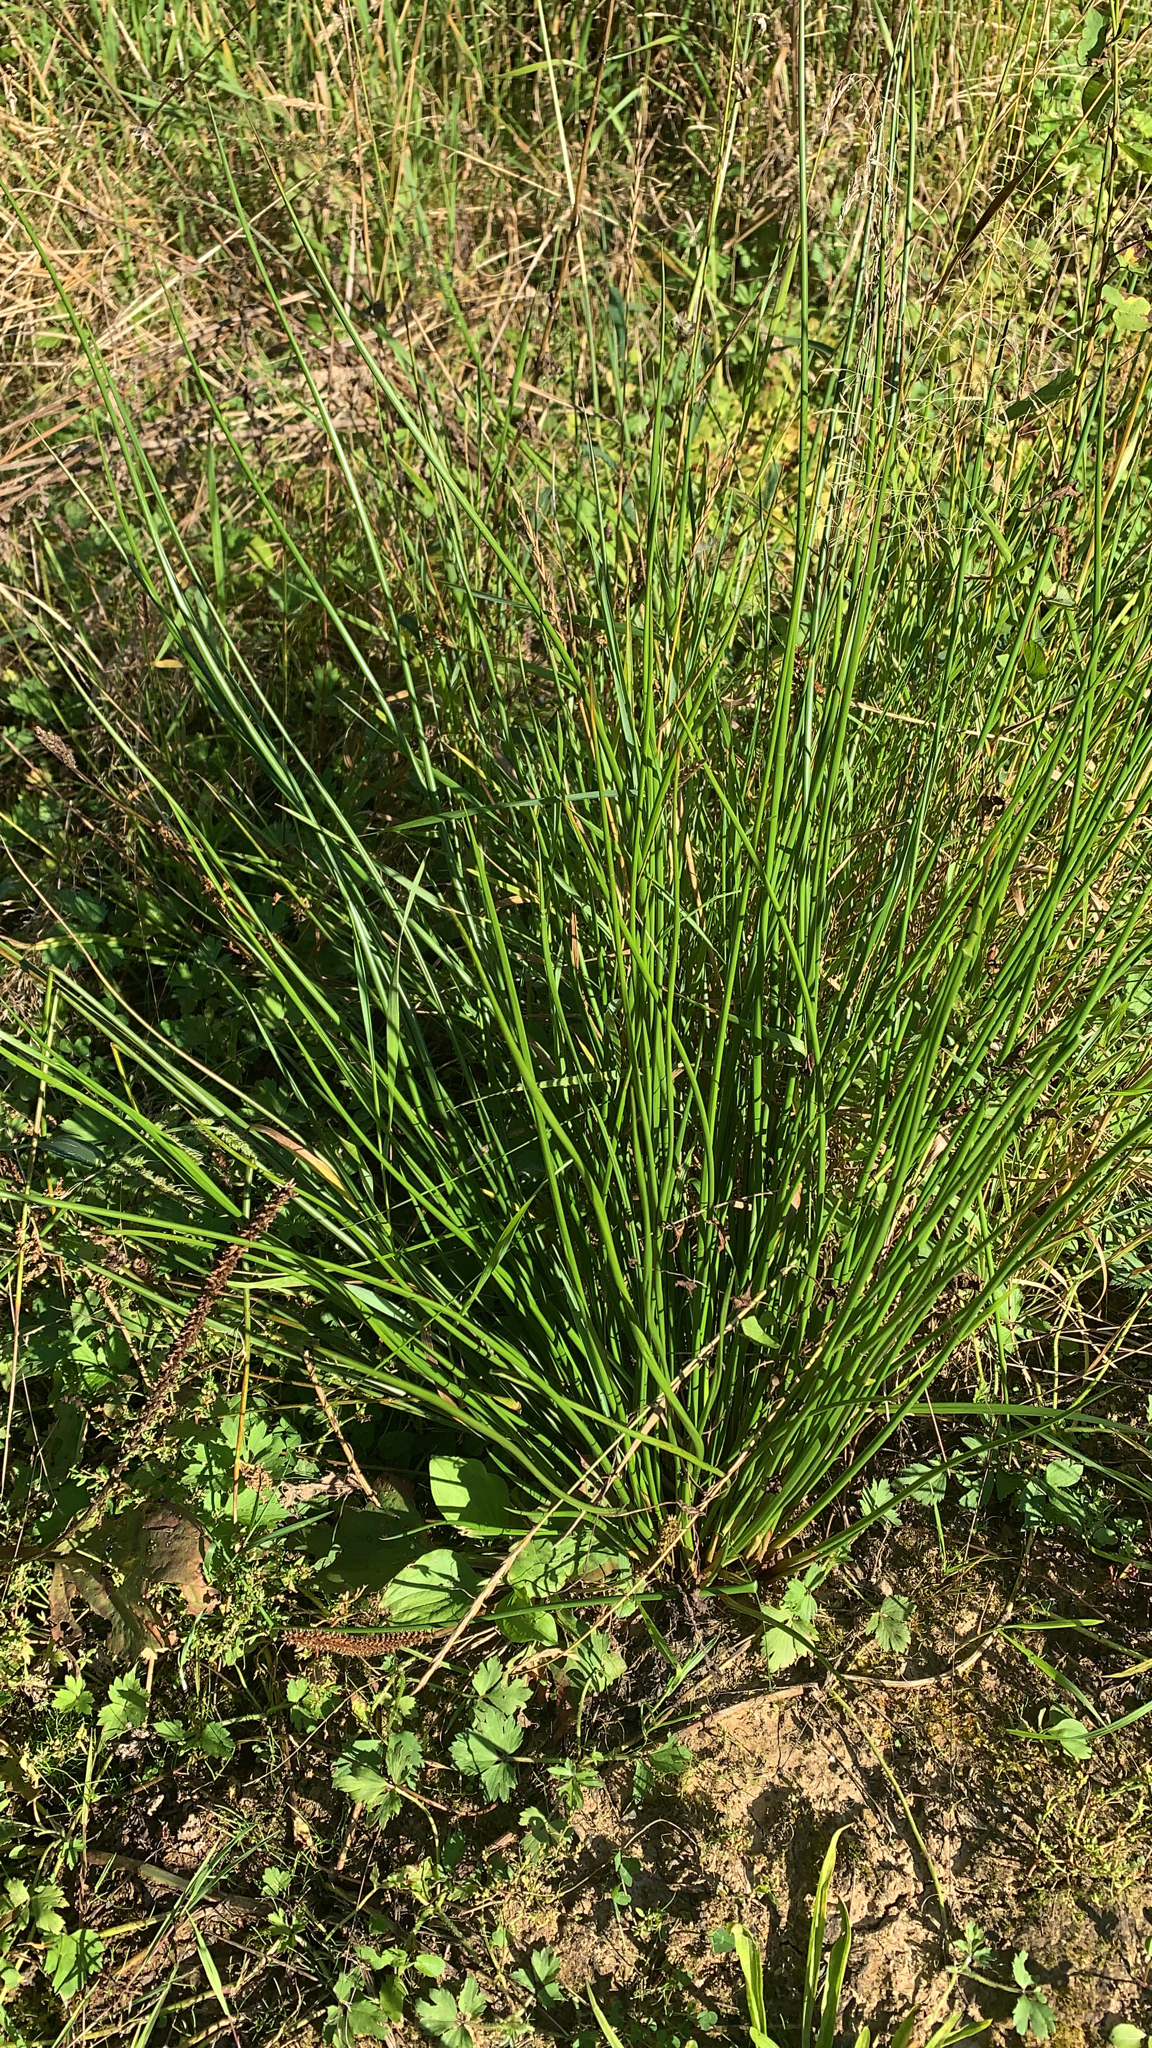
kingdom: Plantae
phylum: Tracheophyta
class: Liliopsida
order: Poales
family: Juncaceae
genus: Juncus
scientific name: Juncus effusus
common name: Soft rush
